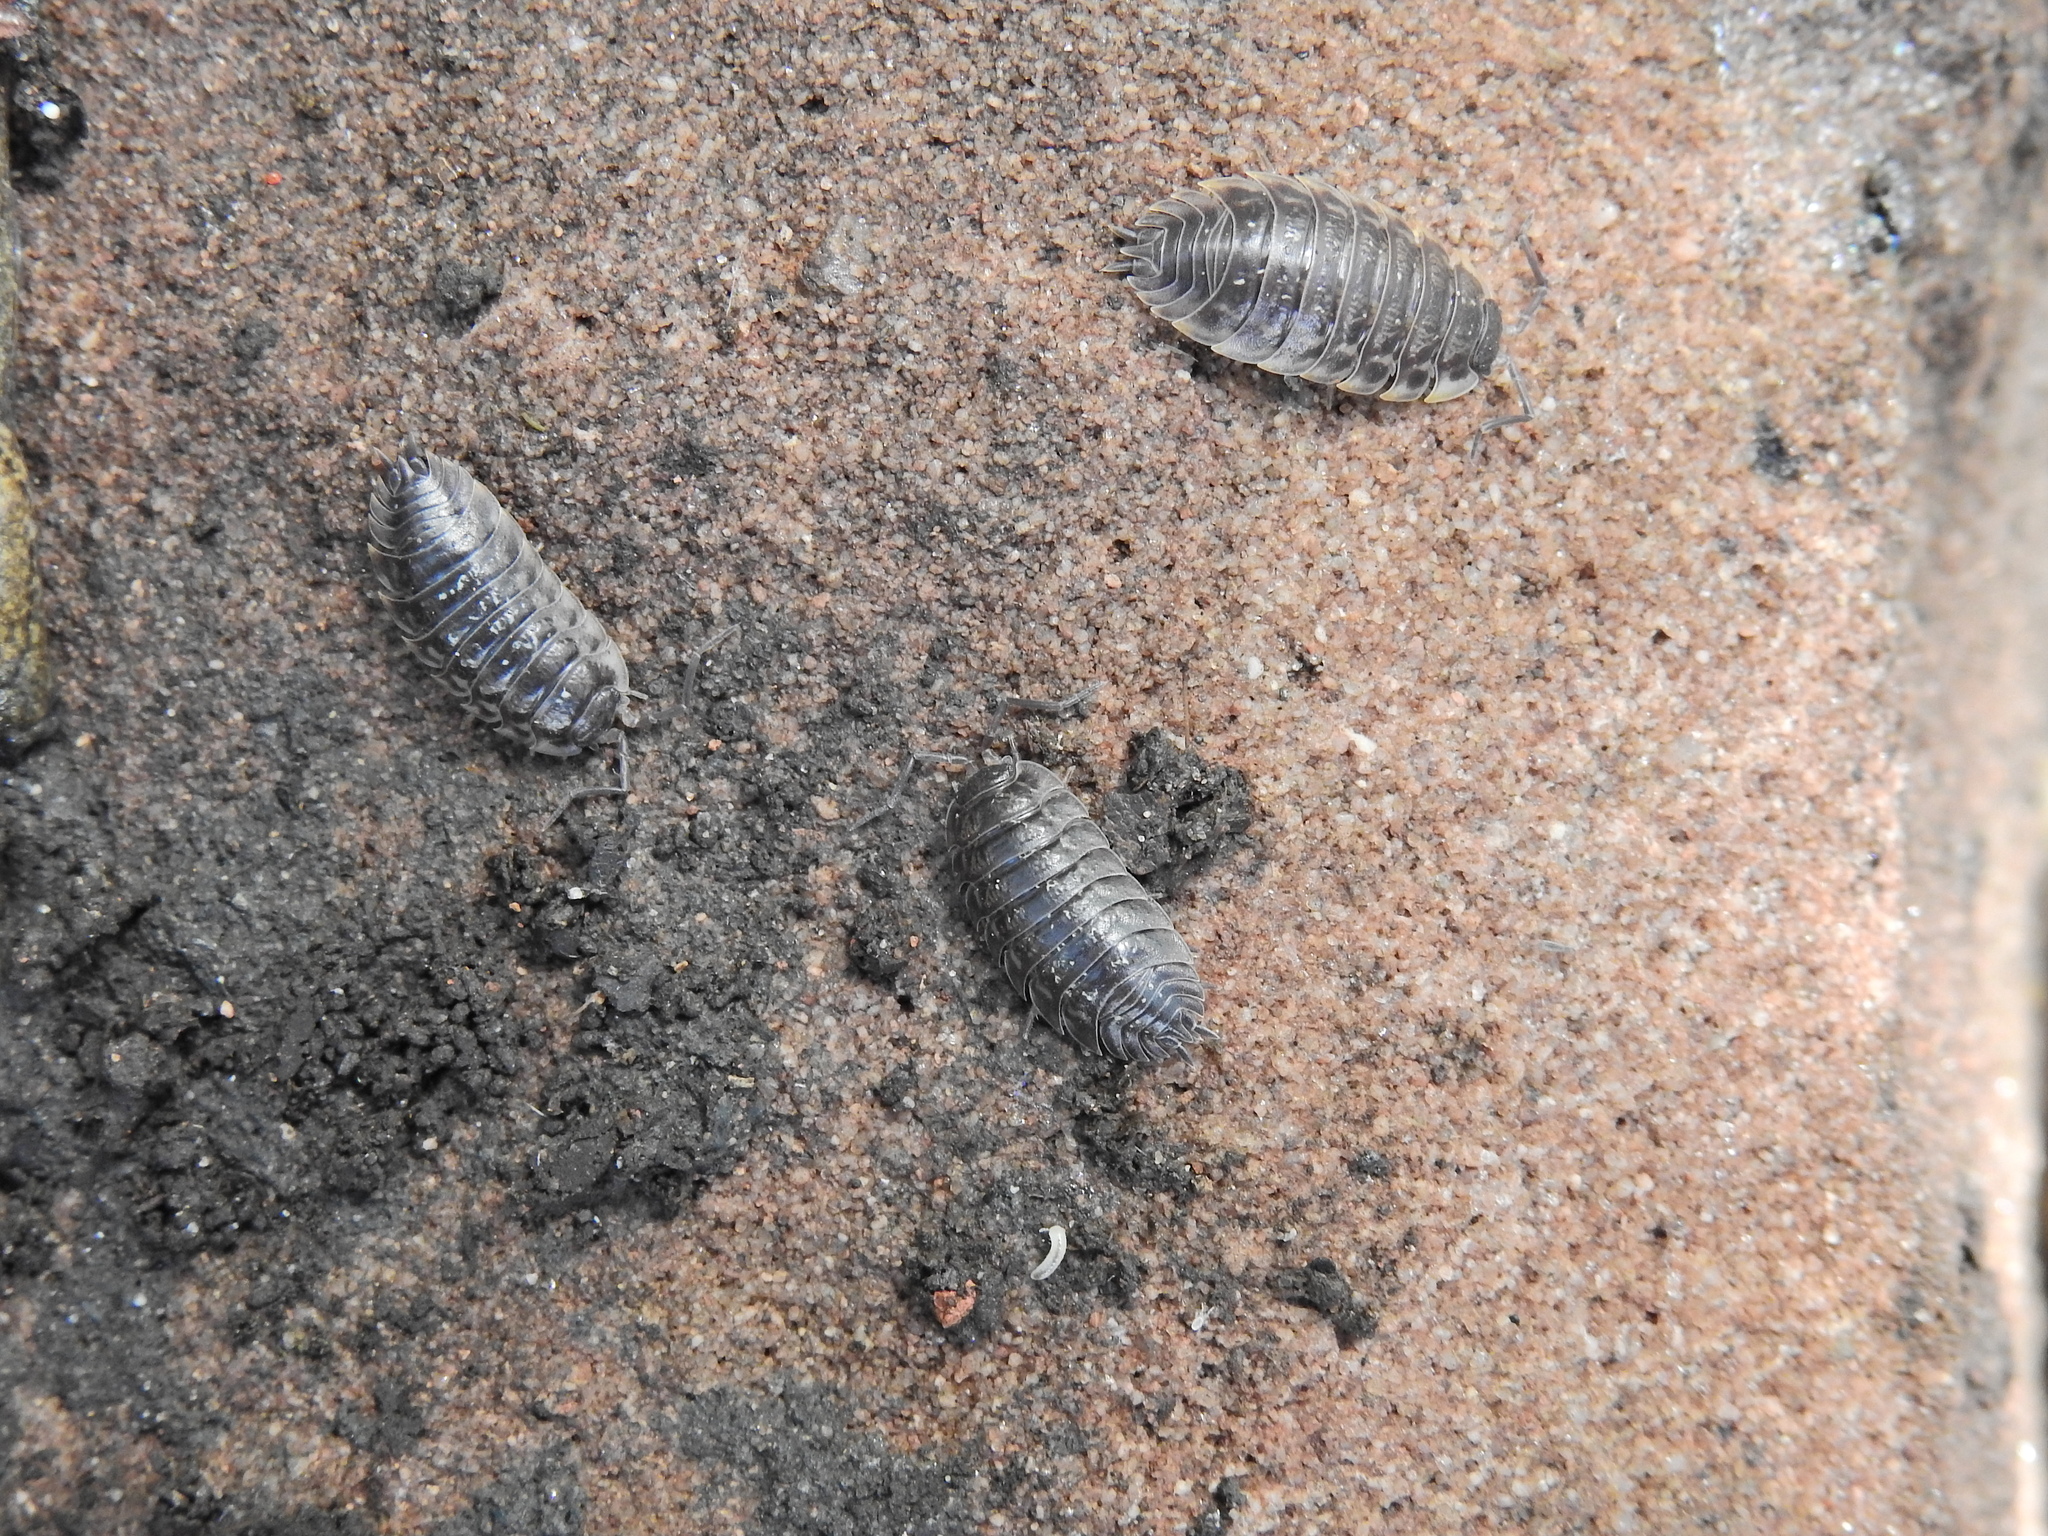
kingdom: Animalia
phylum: Arthropoda
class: Malacostraca
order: Isopoda
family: Oniscidae
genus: Oniscus
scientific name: Oniscus asellus
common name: Common shiny woodlouse
